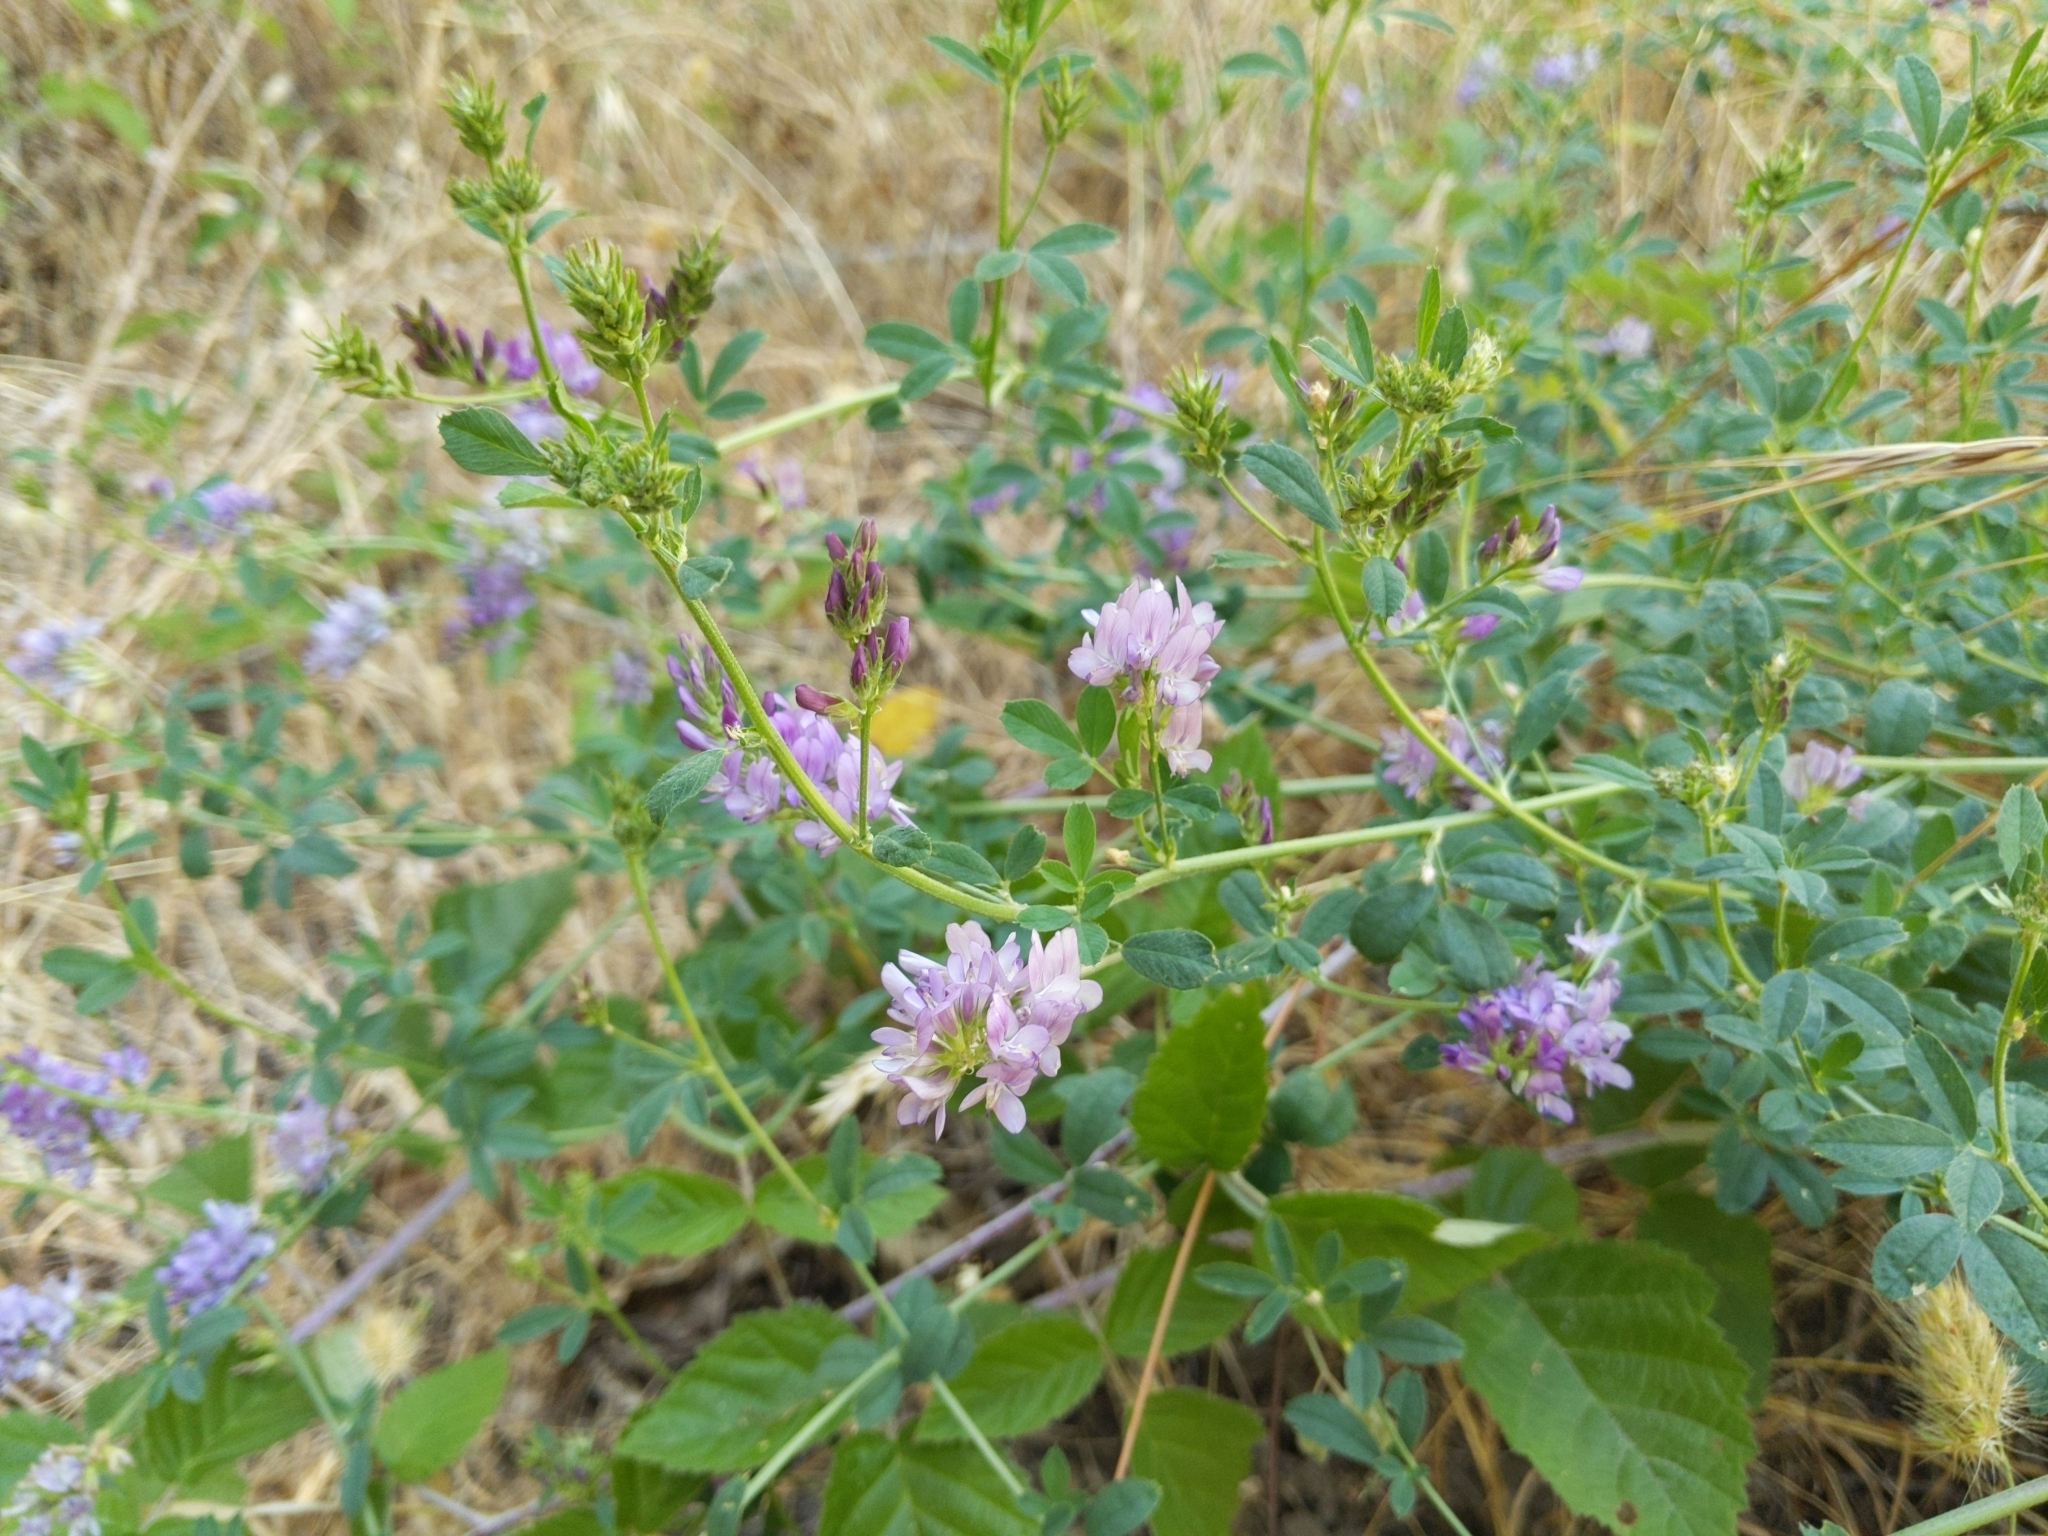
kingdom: Plantae
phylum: Tracheophyta
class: Magnoliopsida
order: Fabales
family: Fabaceae
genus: Medicago
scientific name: Medicago sativa
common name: Alfalfa
